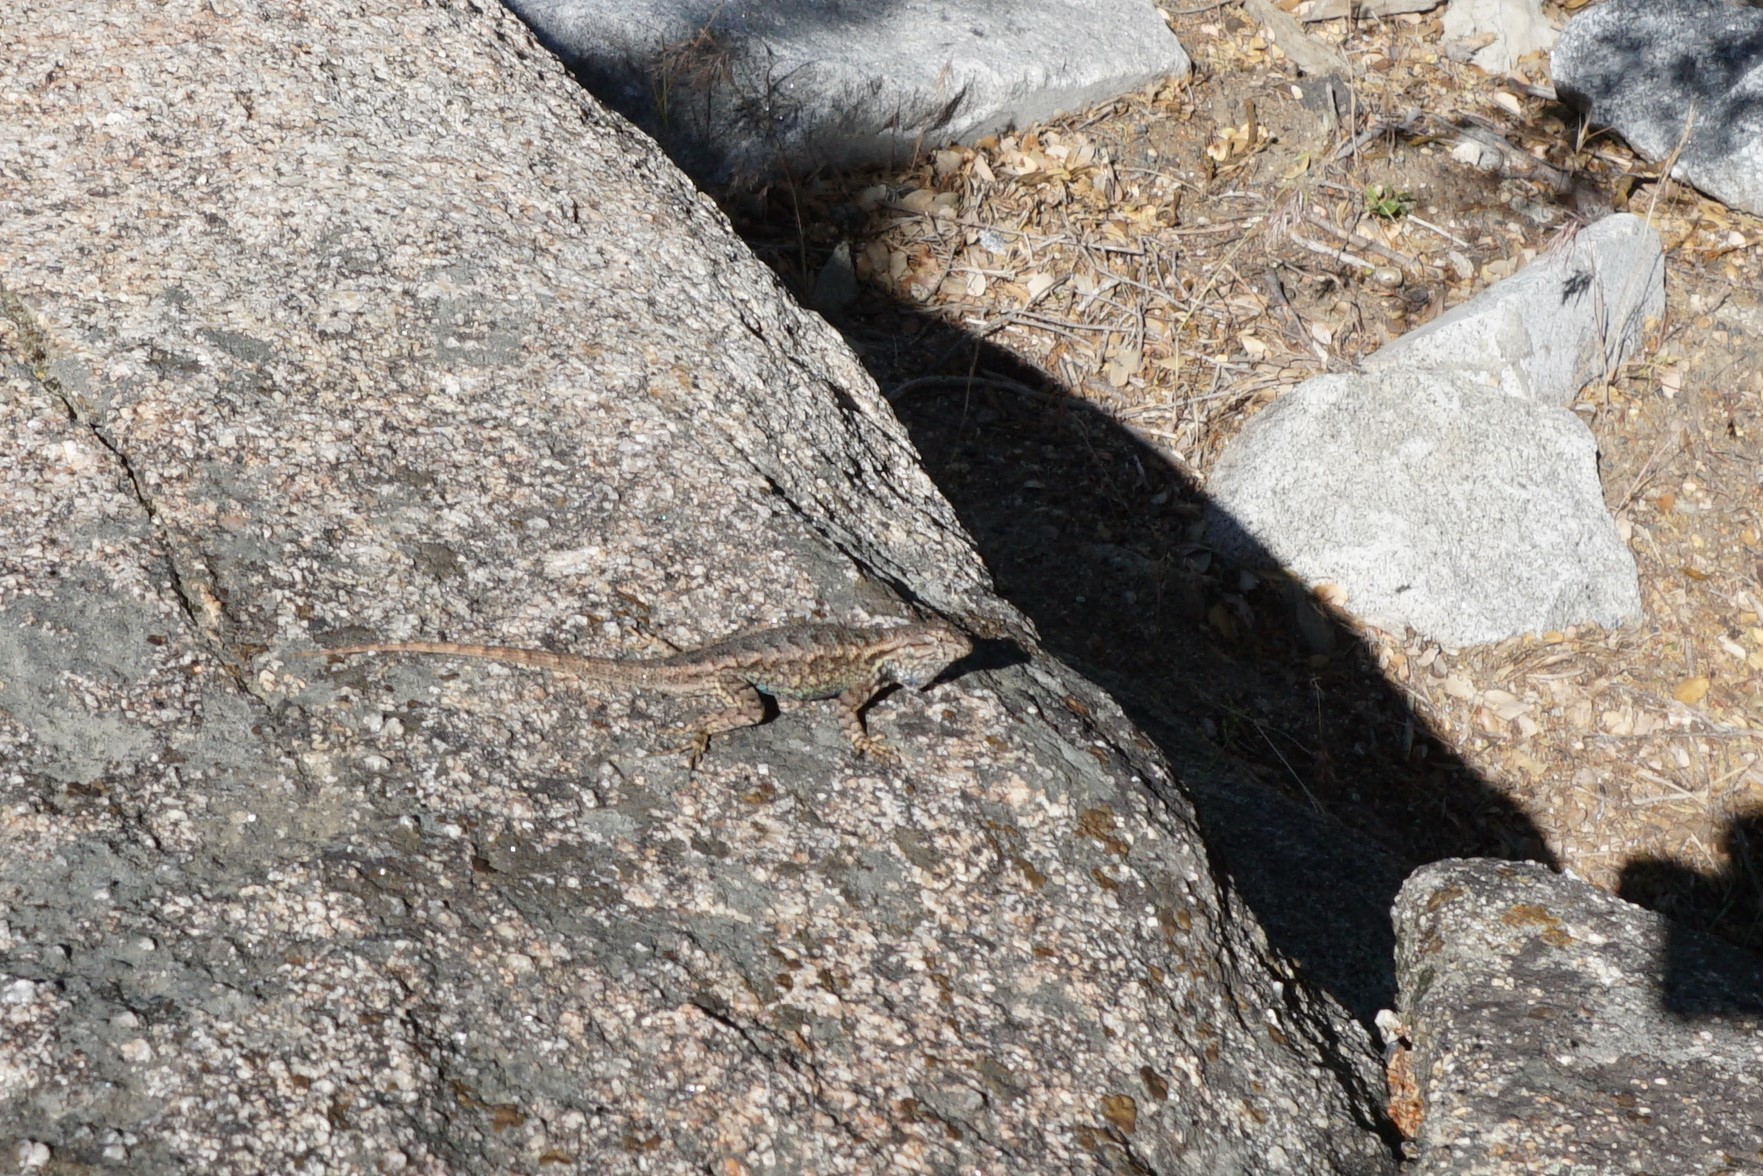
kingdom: Animalia
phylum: Chordata
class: Squamata
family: Phrynosomatidae
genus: Sceloporus
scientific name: Sceloporus occidentalis
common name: Western fence lizard
